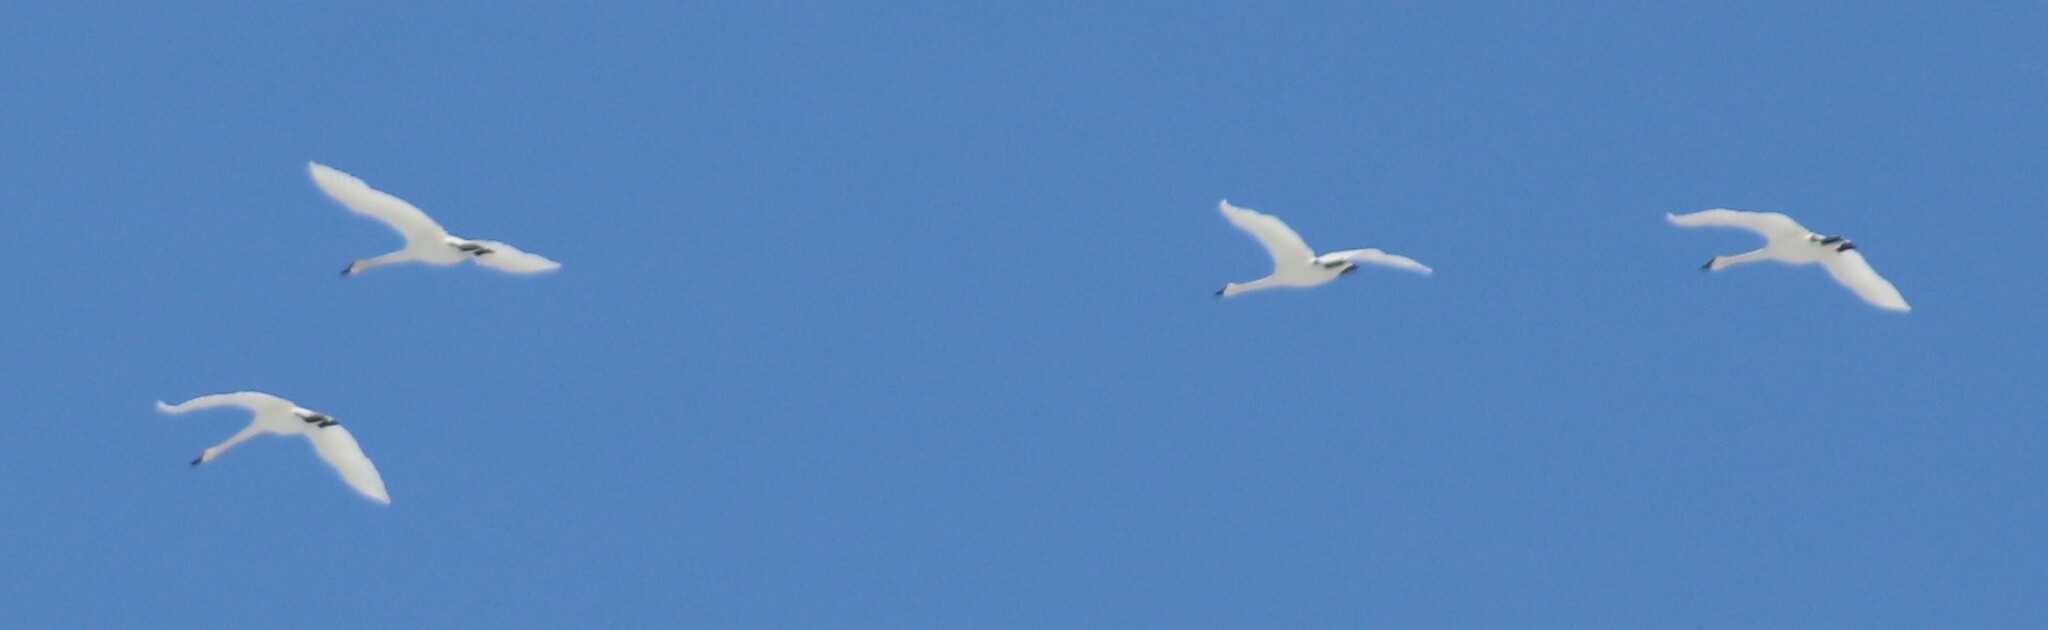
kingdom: Animalia
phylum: Chordata
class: Aves
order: Anseriformes
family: Anatidae
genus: Cygnus
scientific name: Cygnus buccinator
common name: Trumpeter swan
